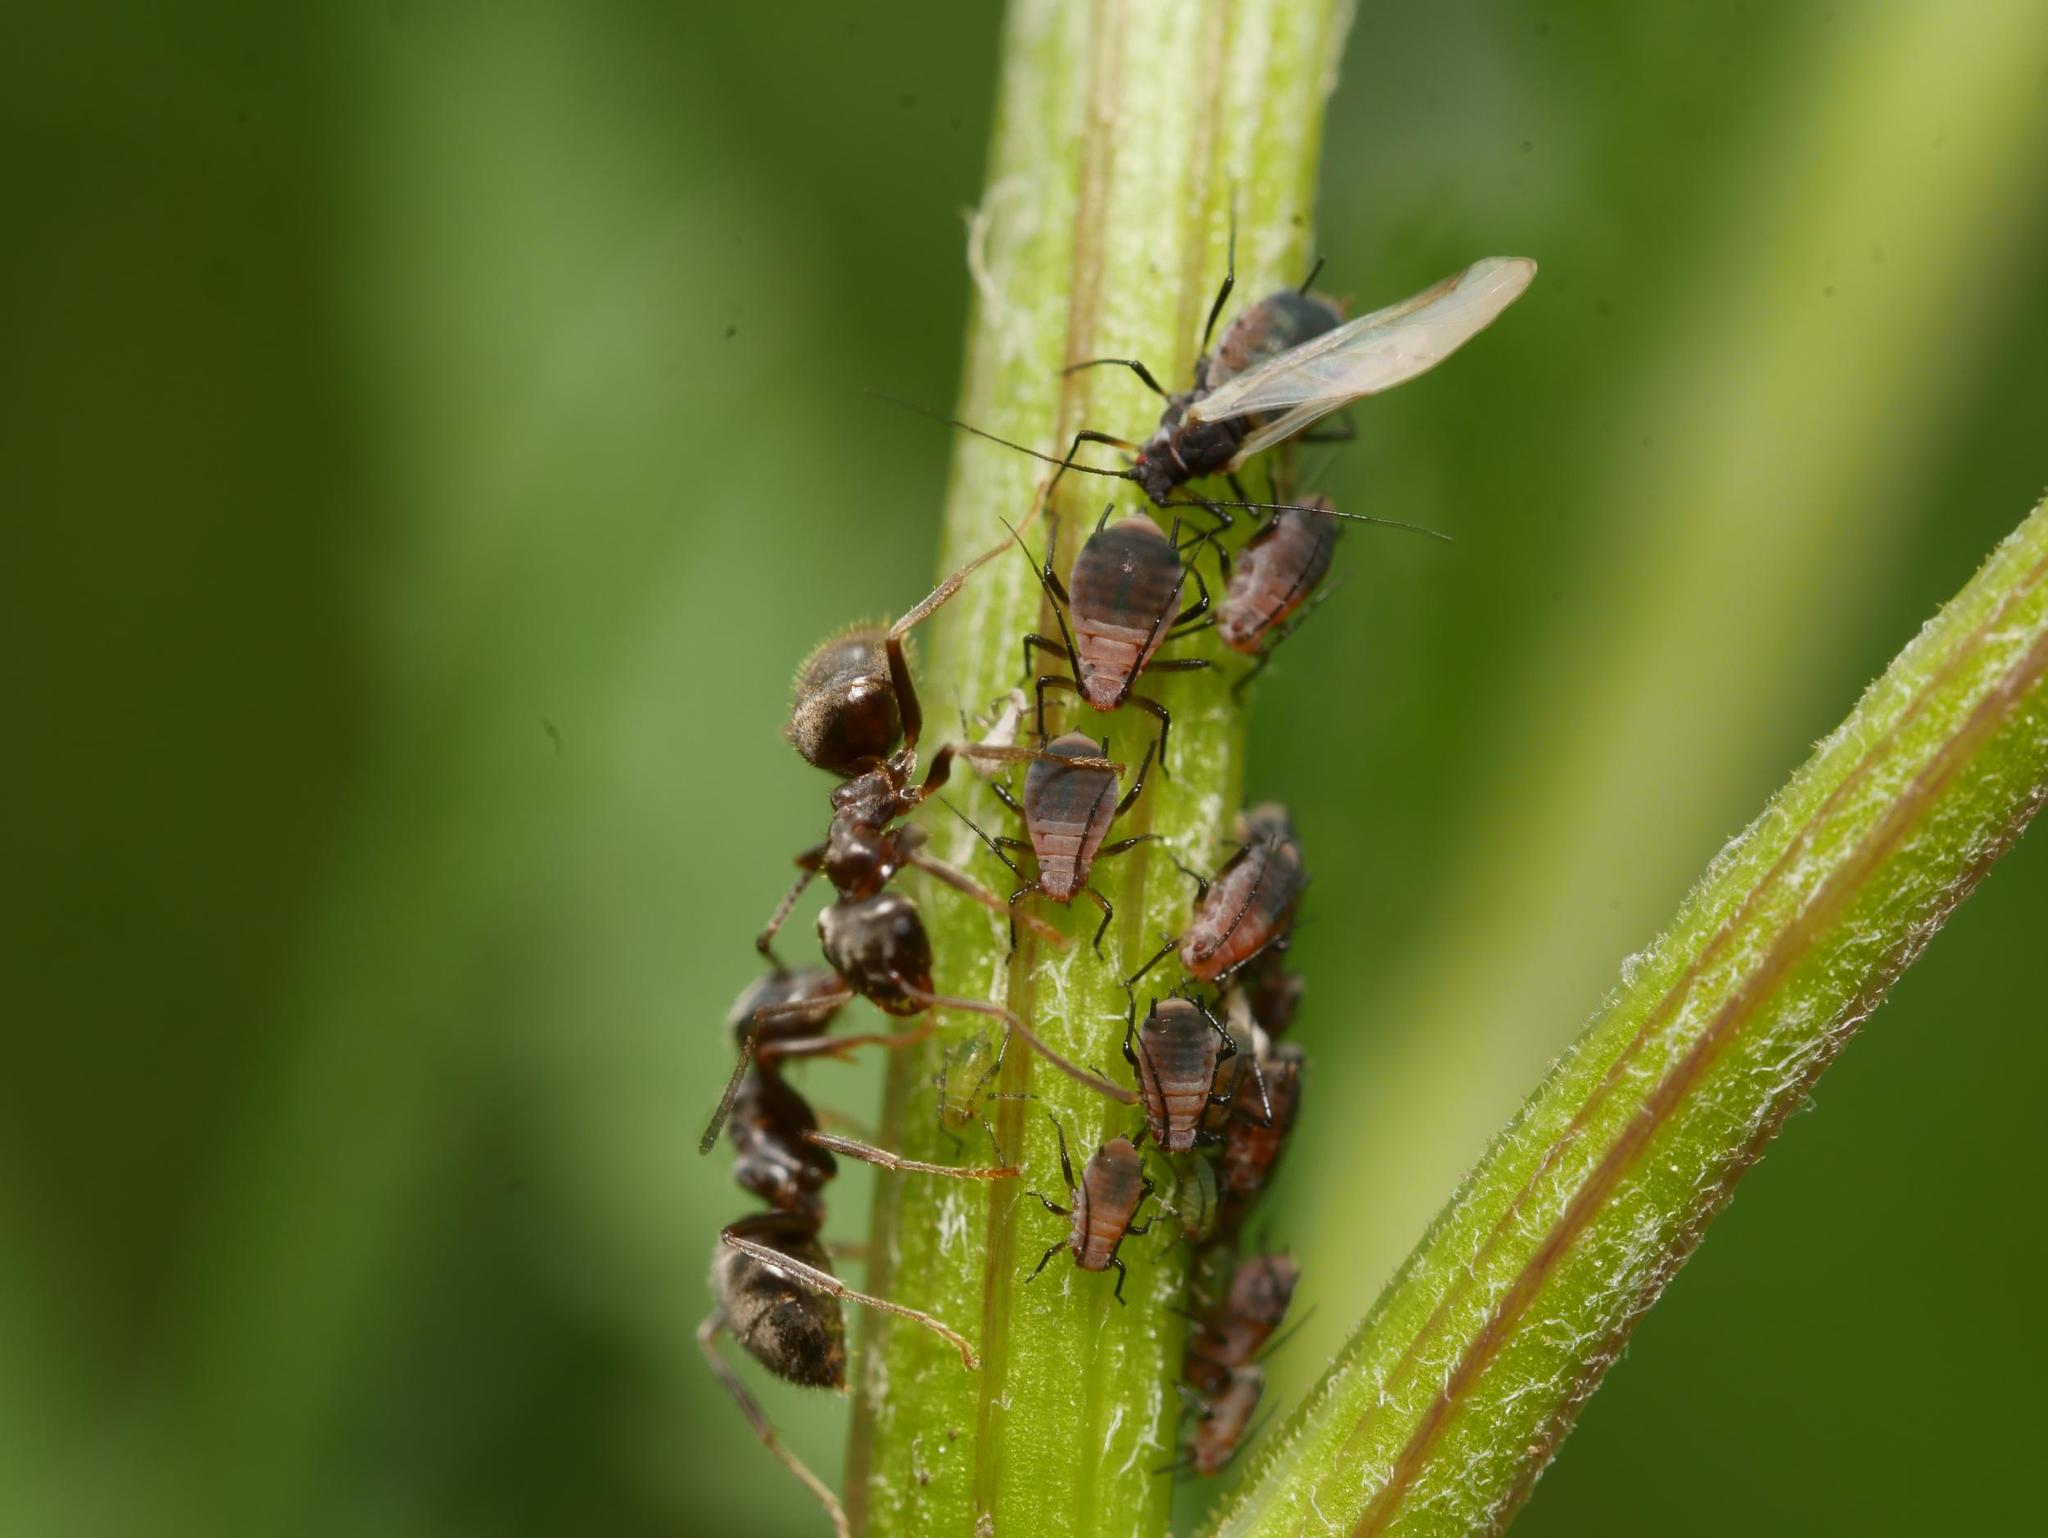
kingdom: Animalia
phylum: Arthropoda
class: Insecta
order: Hemiptera
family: Aphididae
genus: Metopeurum
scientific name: Metopeurum fuscoviride
